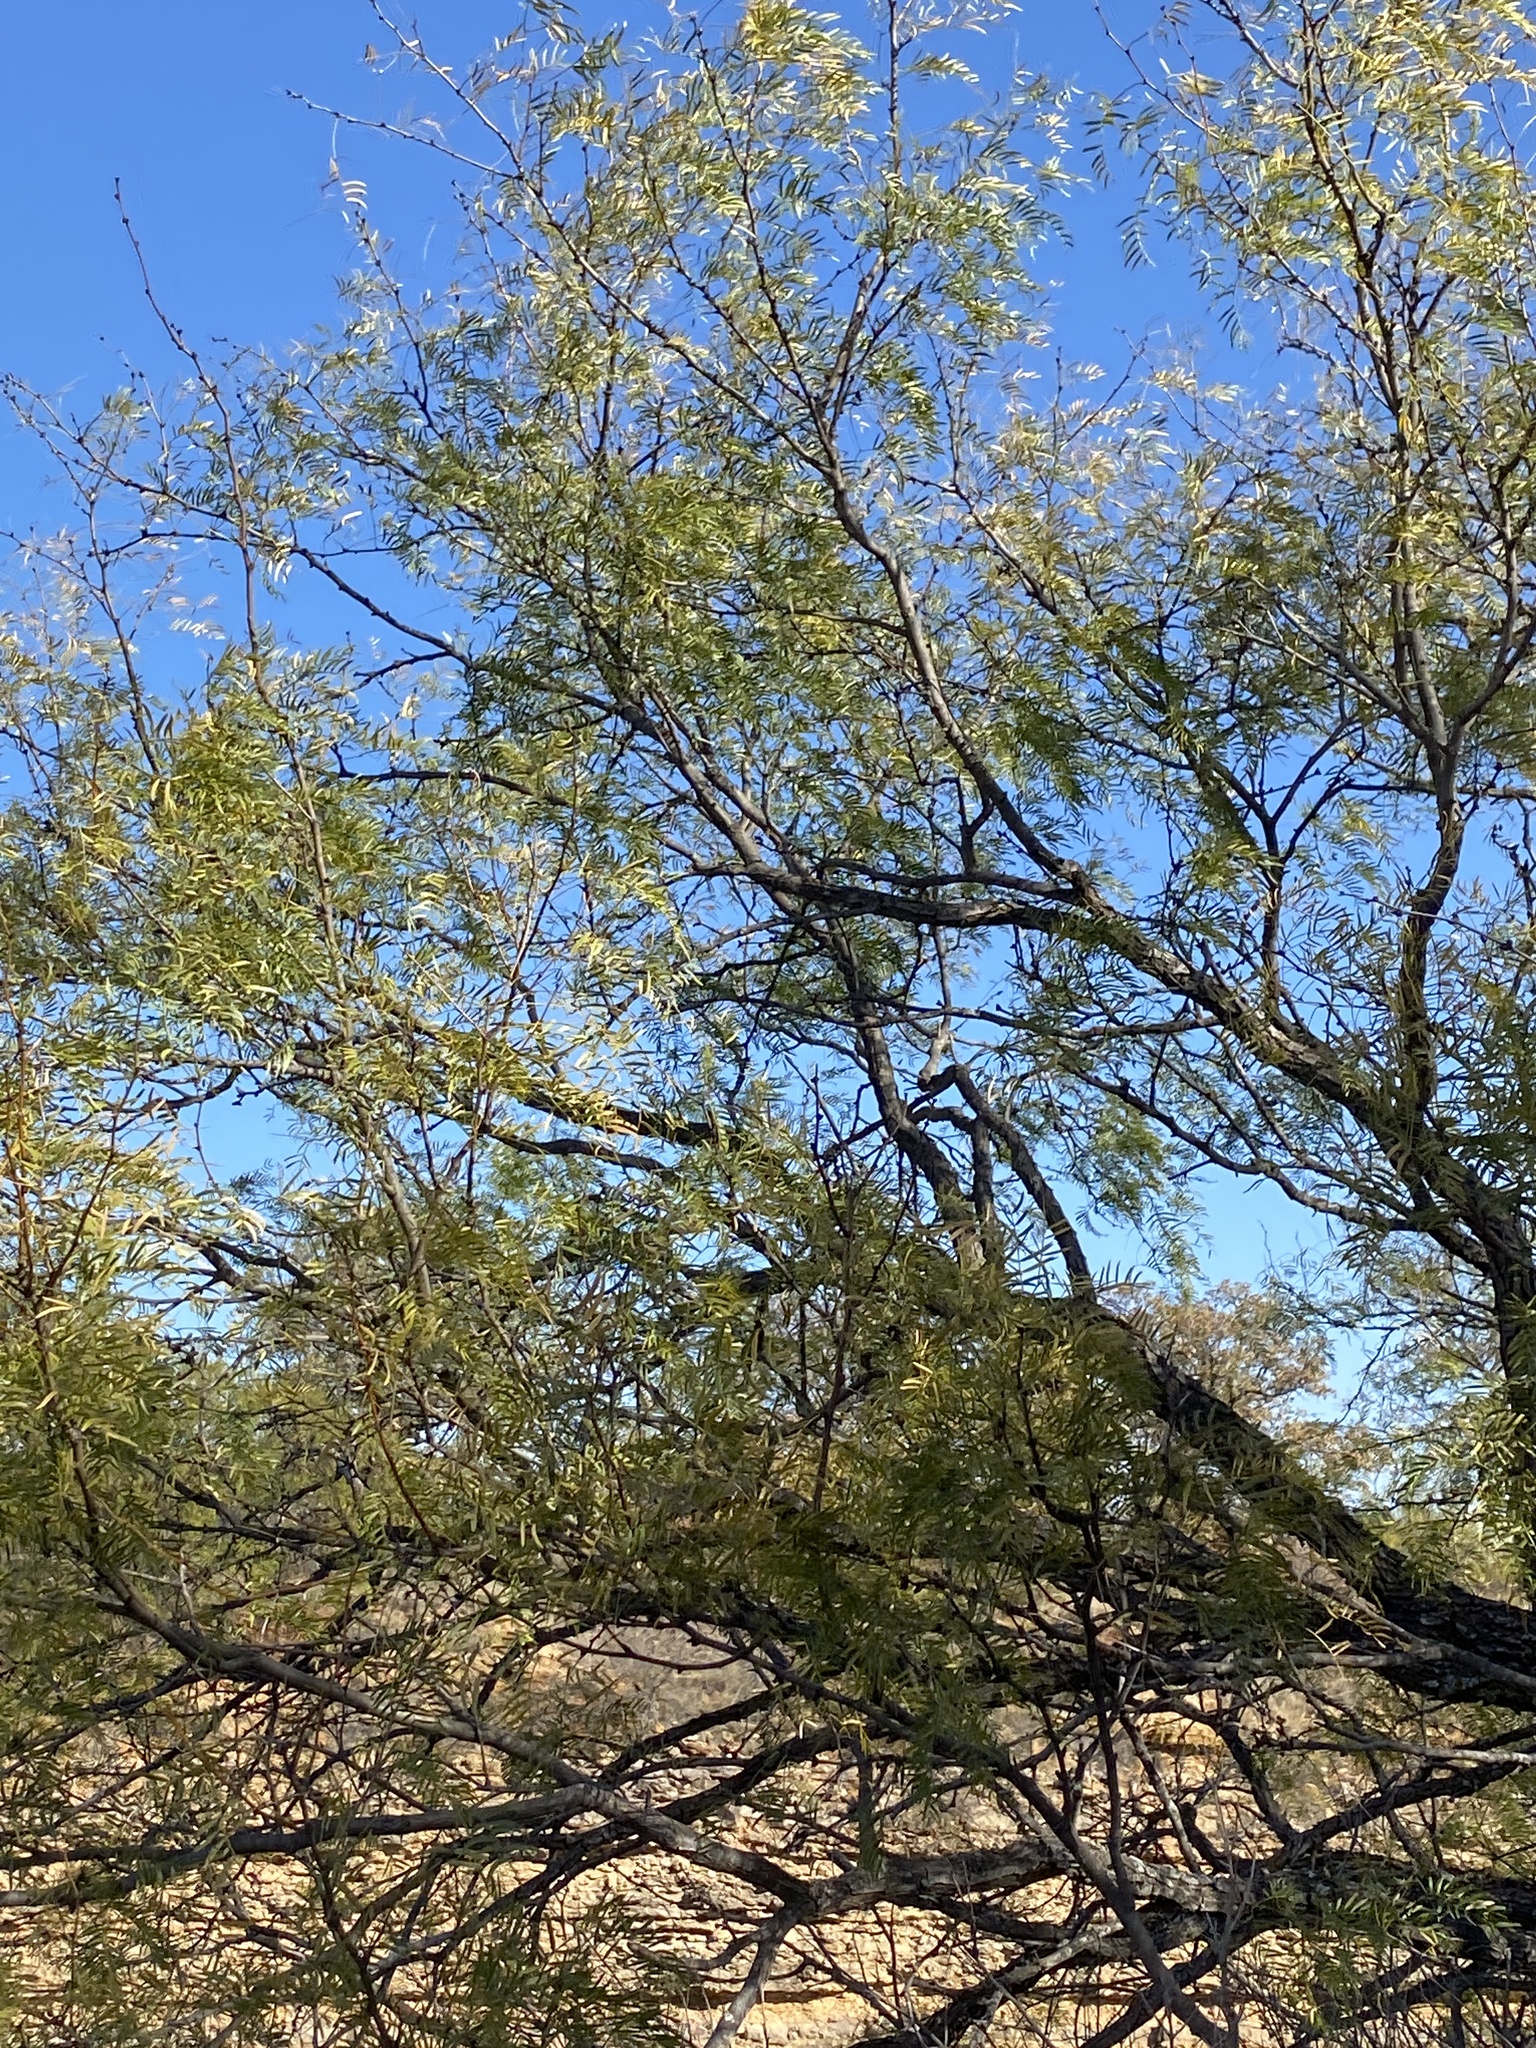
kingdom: Plantae
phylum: Tracheophyta
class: Magnoliopsida
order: Fabales
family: Fabaceae
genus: Prosopis
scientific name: Prosopis glandulosa
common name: Honey mesquite
